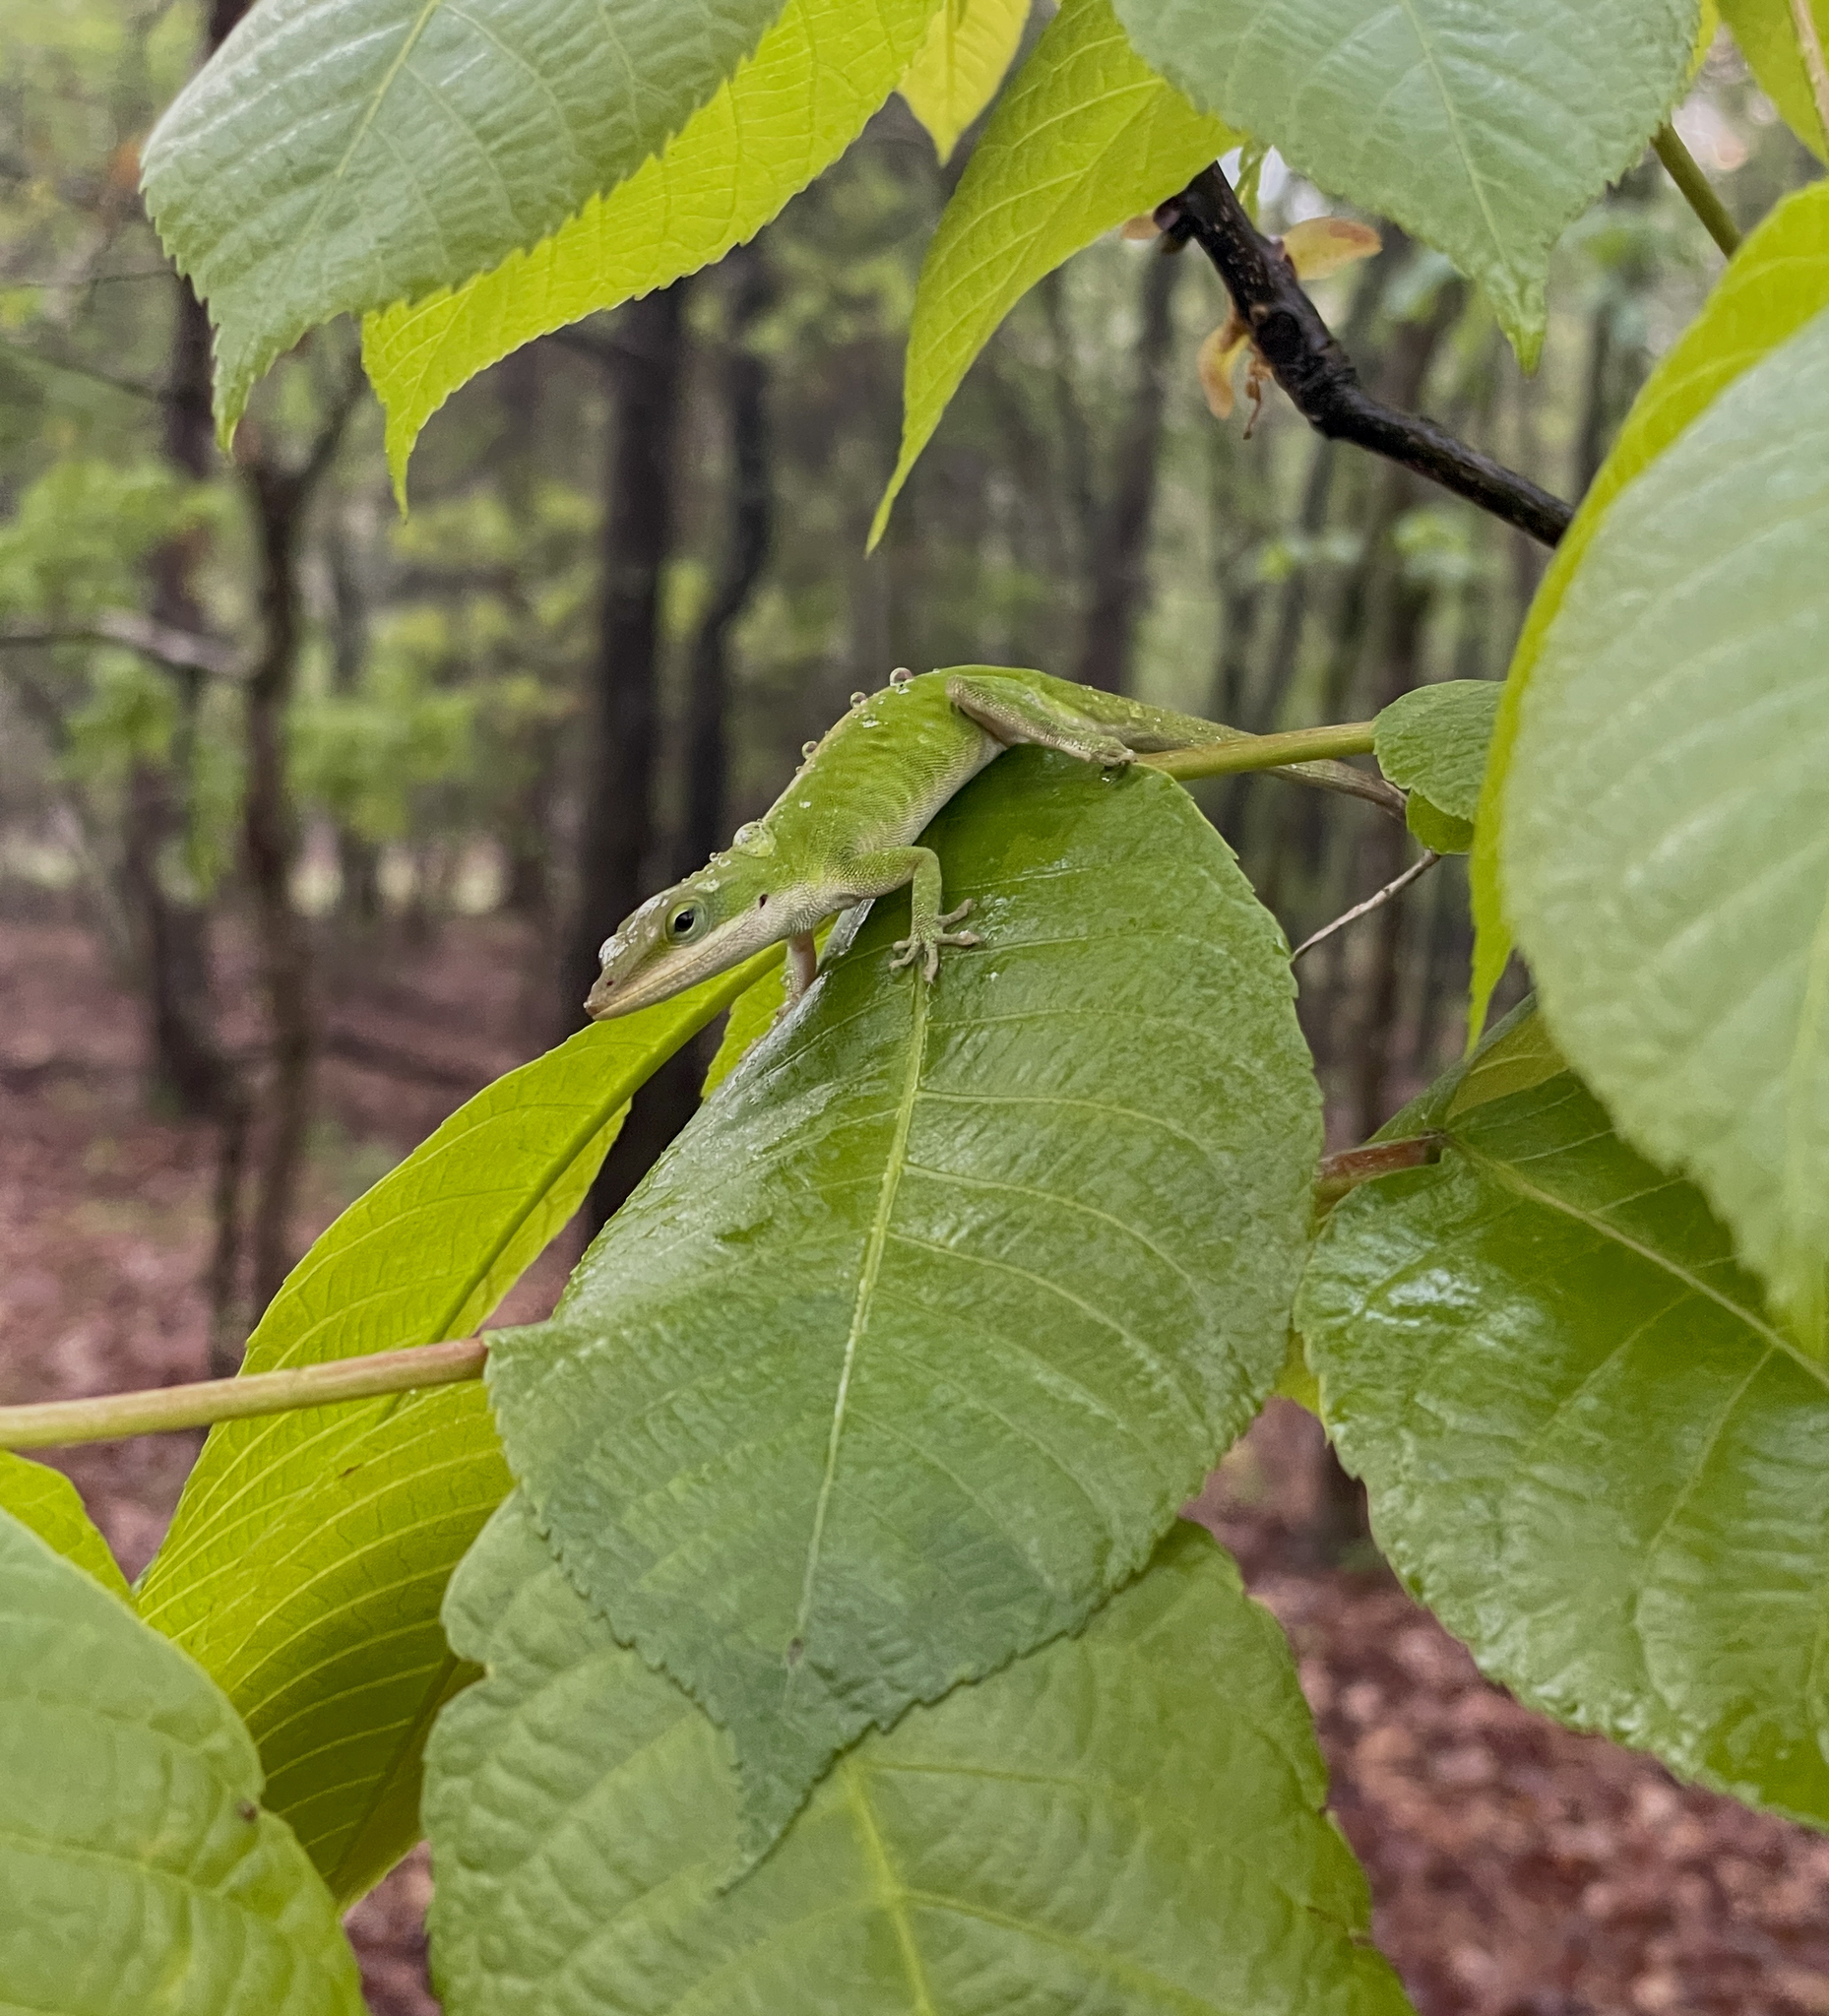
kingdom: Animalia
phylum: Chordata
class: Squamata
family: Dactyloidae
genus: Anolis
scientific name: Anolis carolinensis
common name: Green anole
